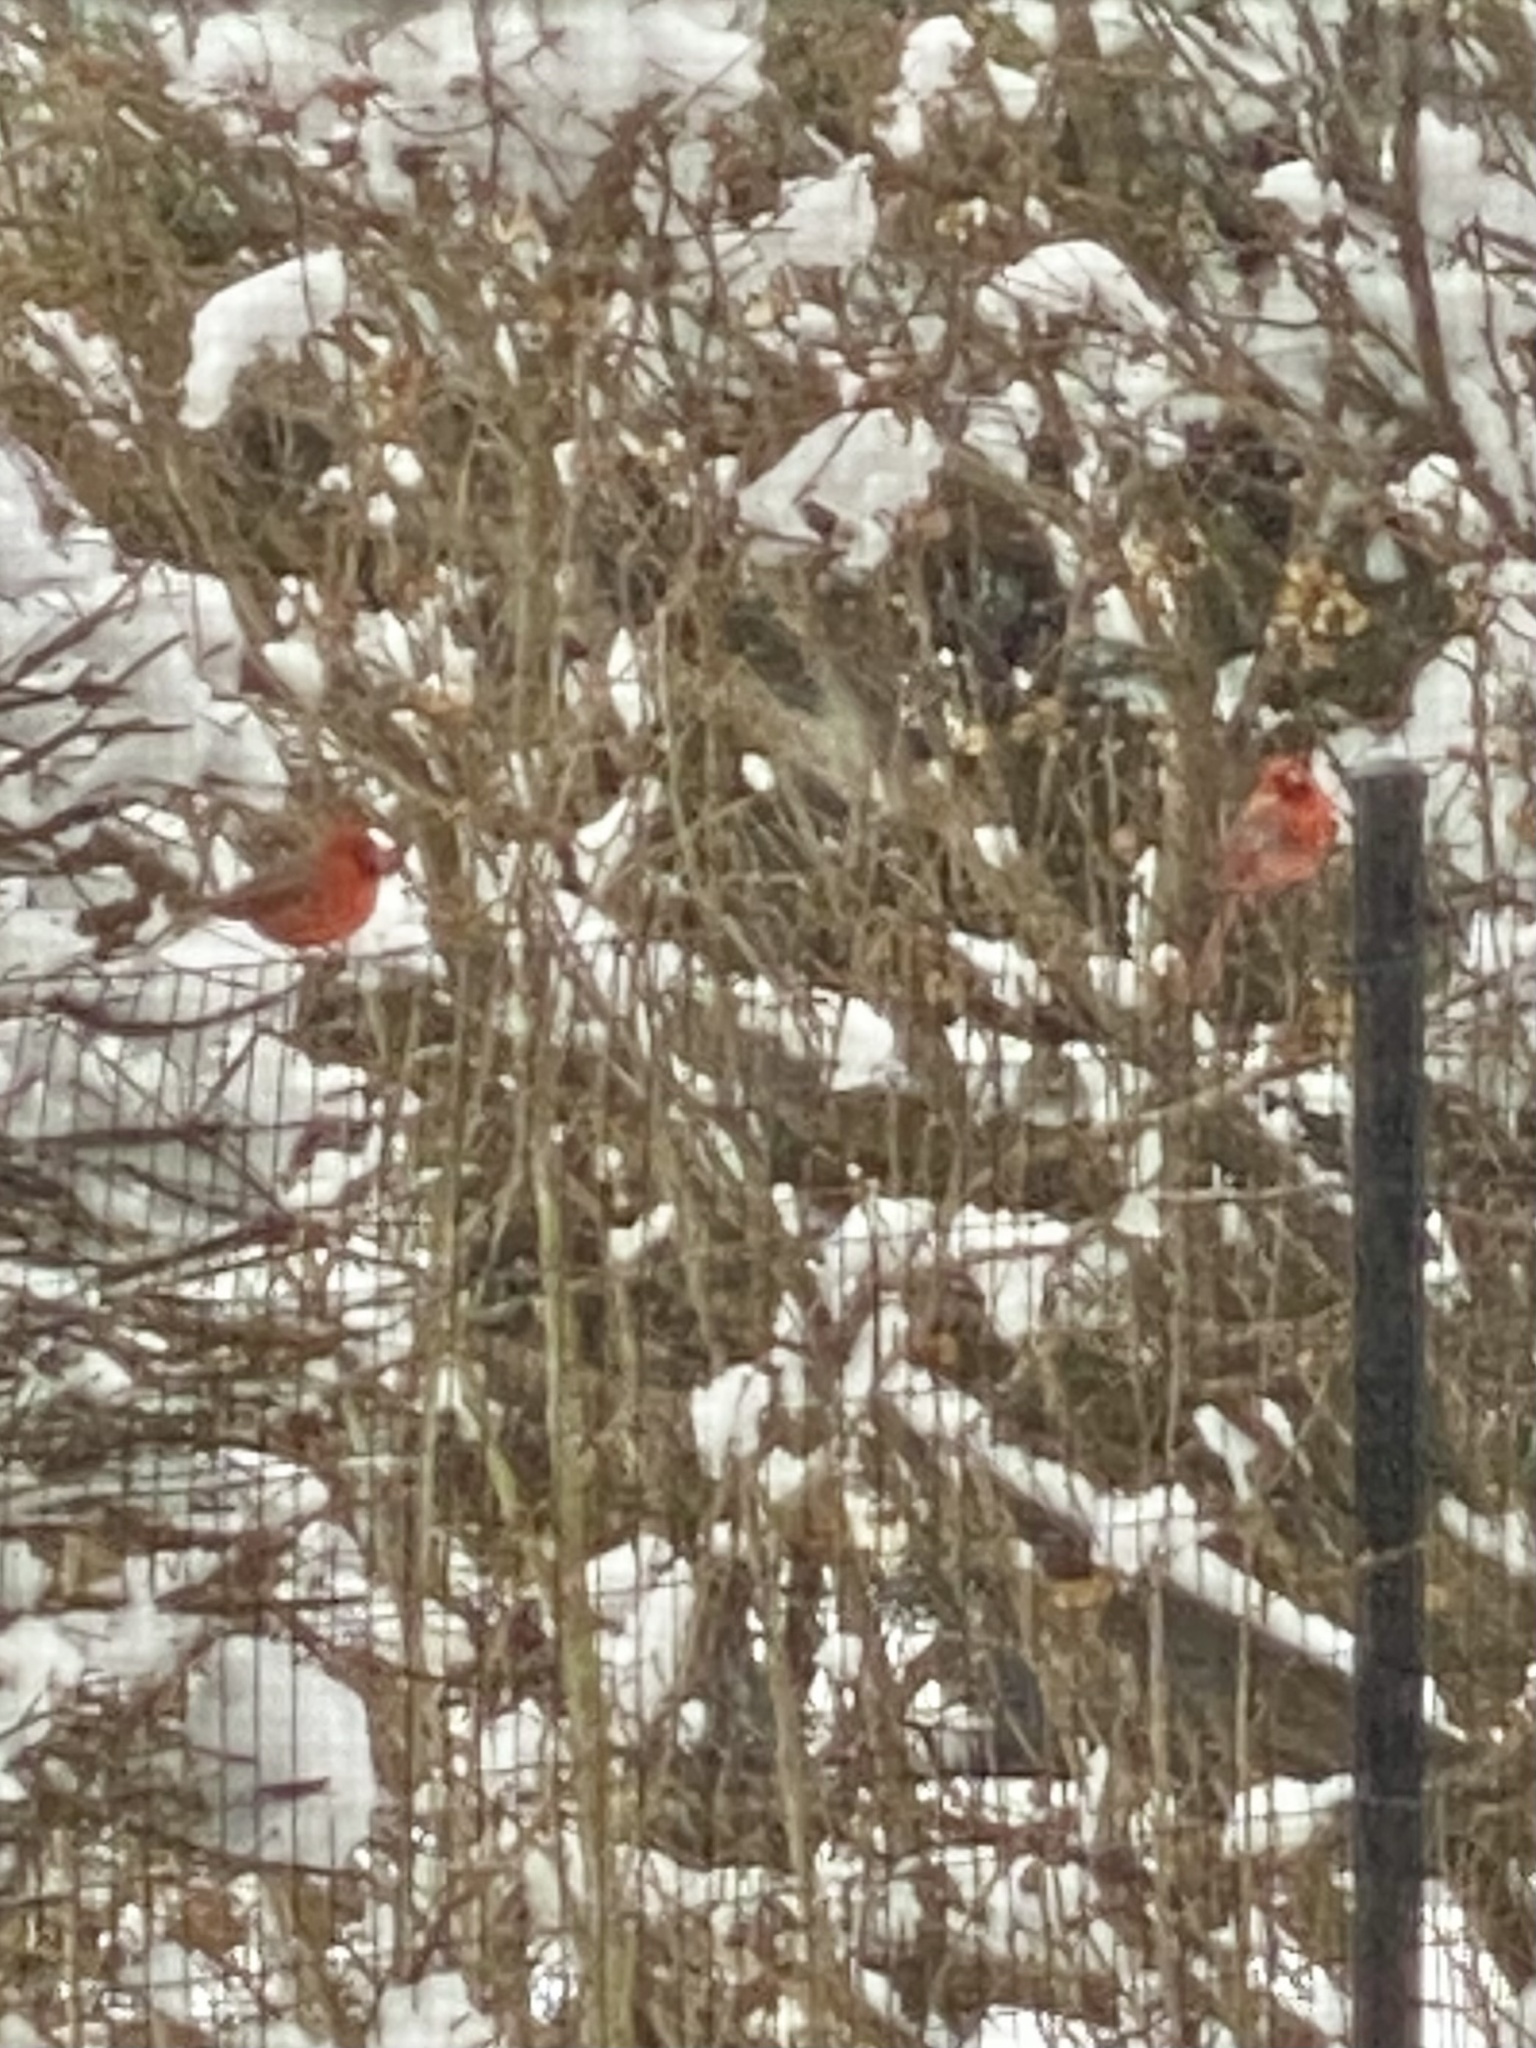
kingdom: Animalia
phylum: Chordata
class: Aves
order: Passeriformes
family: Cardinalidae
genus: Cardinalis
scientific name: Cardinalis cardinalis
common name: Northern cardinal
